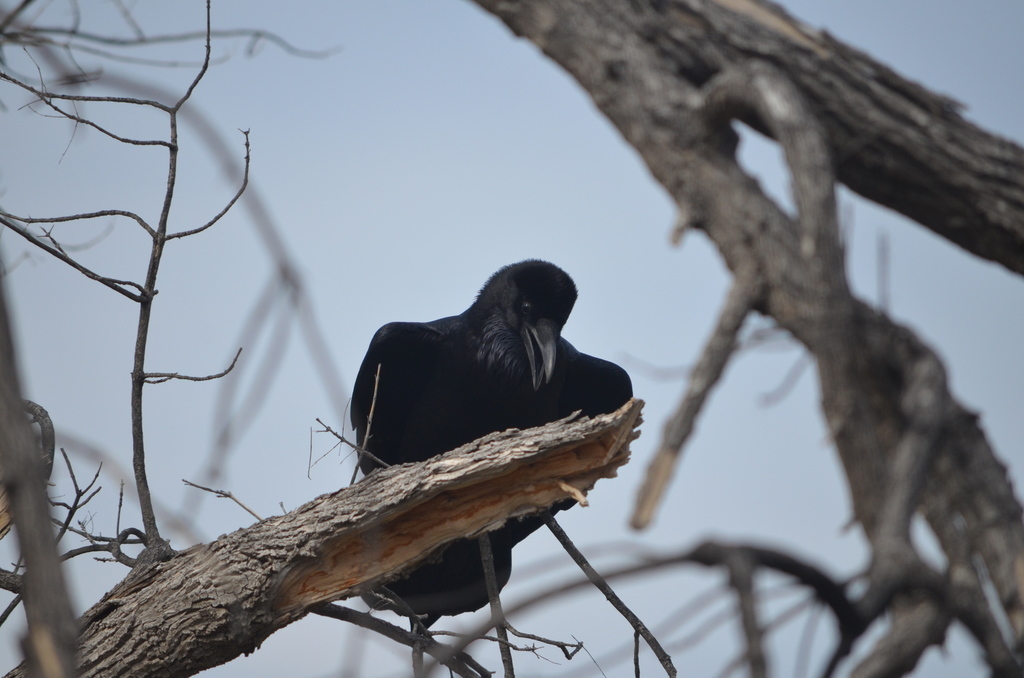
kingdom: Animalia
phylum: Chordata
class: Aves
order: Passeriformes
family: Corvidae
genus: Corvus
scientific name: Corvus corax
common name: Common raven
